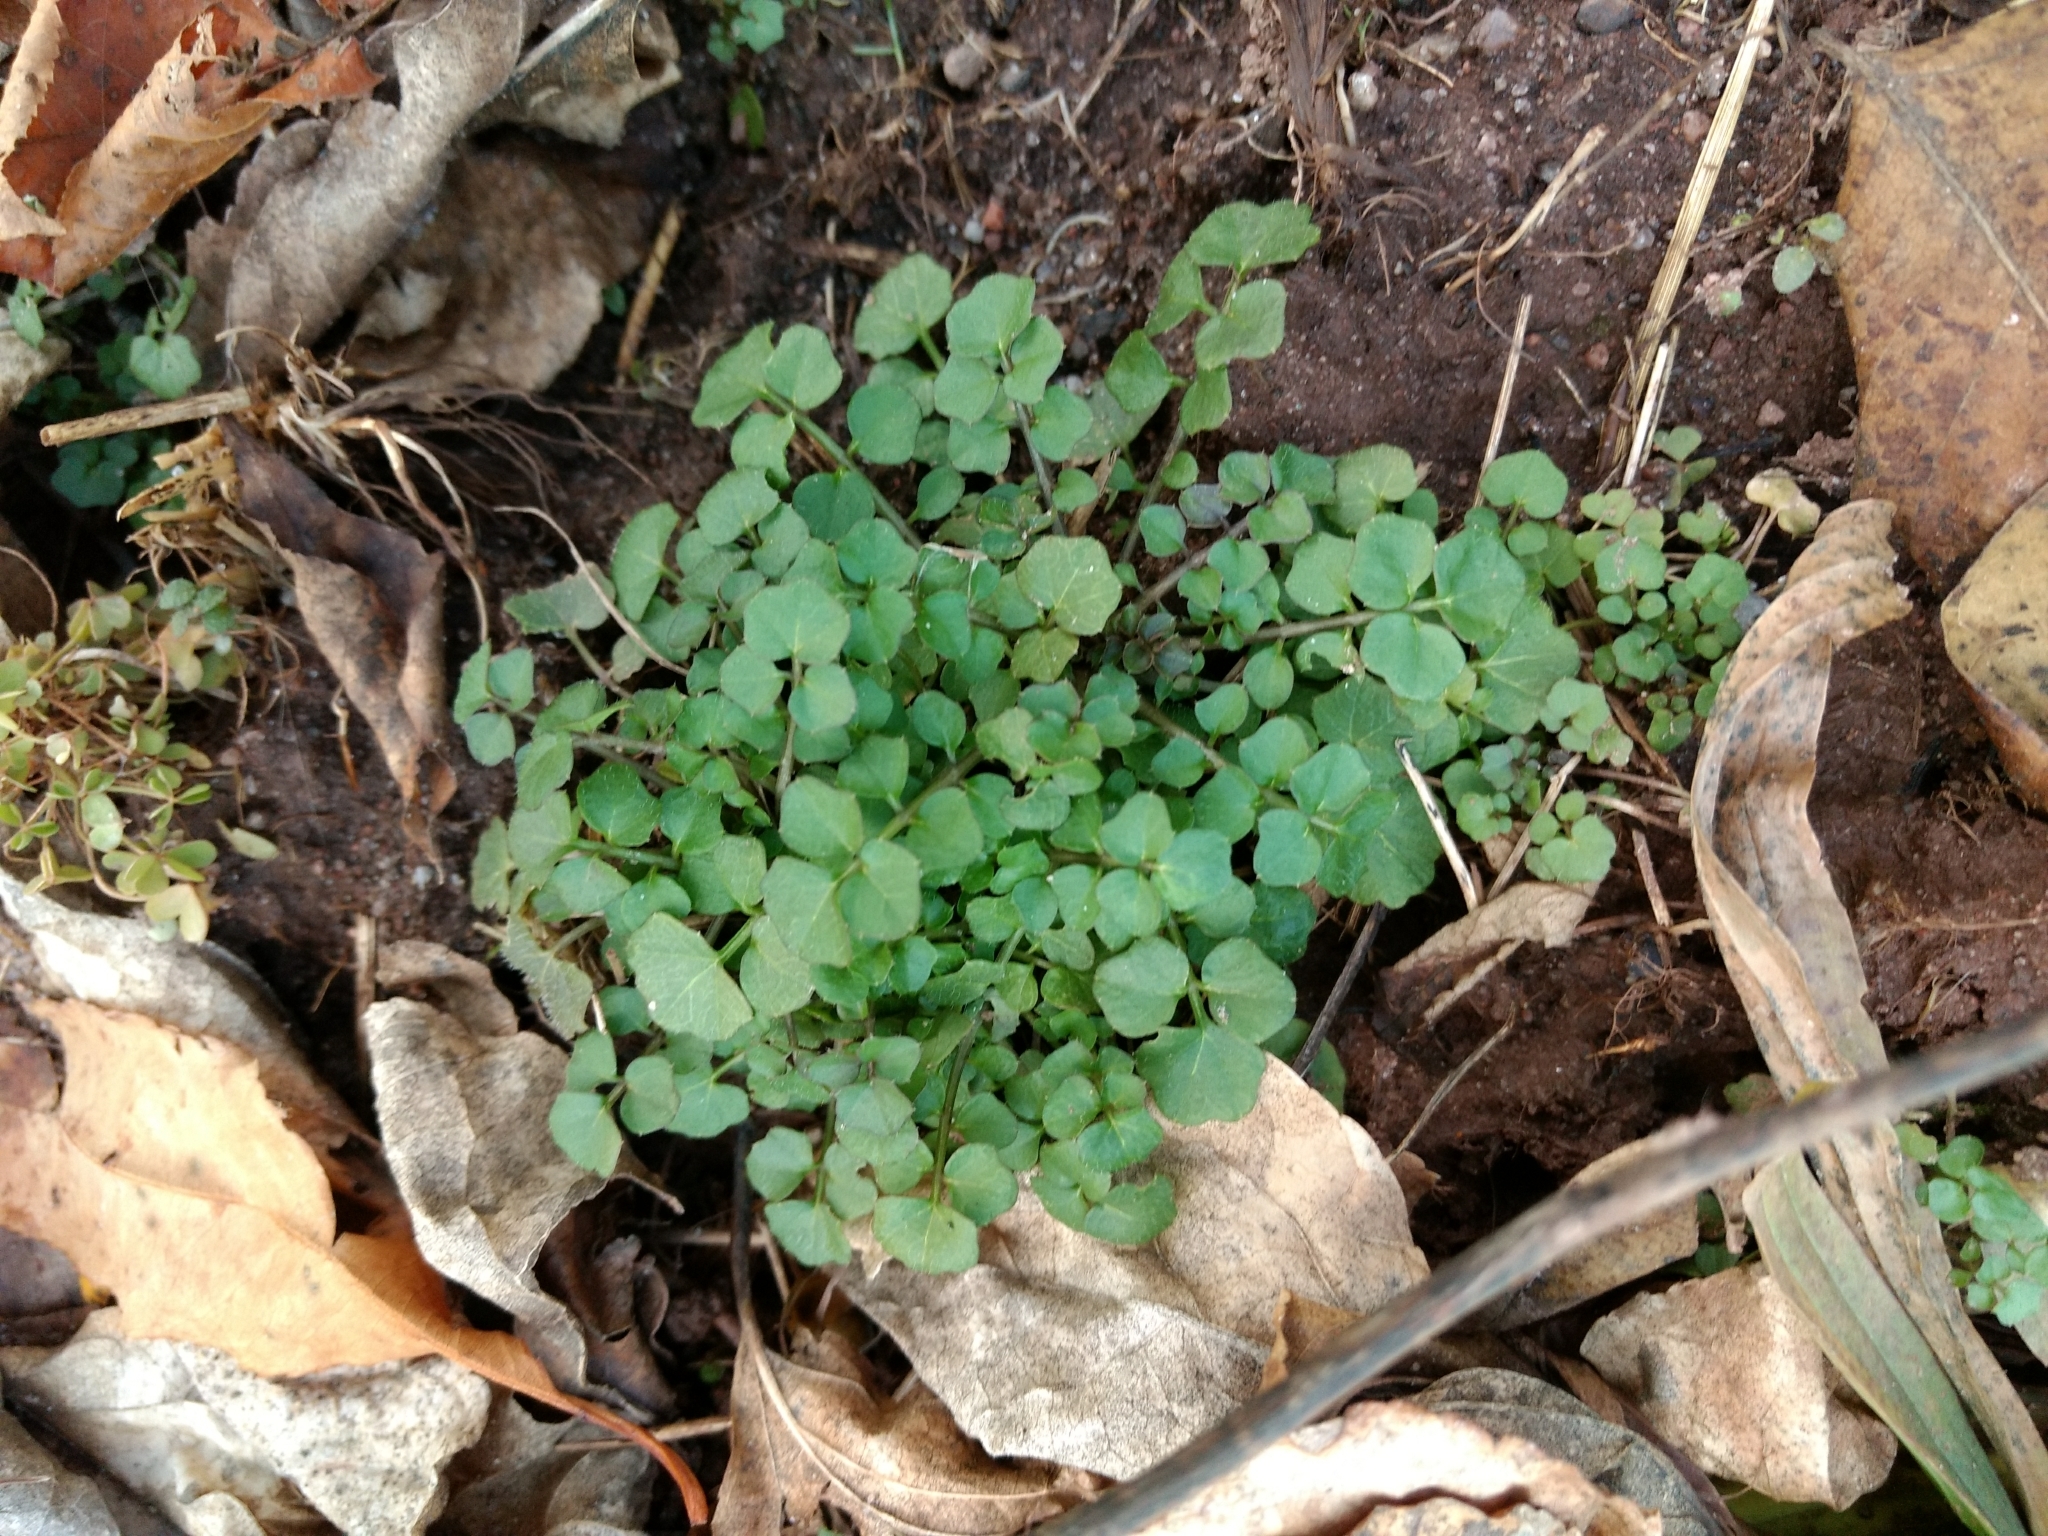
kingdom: Plantae
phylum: Tracheophyta
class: Magnoliopsida
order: Brassicales
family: Brassicaceae
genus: Cardamine
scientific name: Cardamine hirsuta
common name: Hairy bittercress
